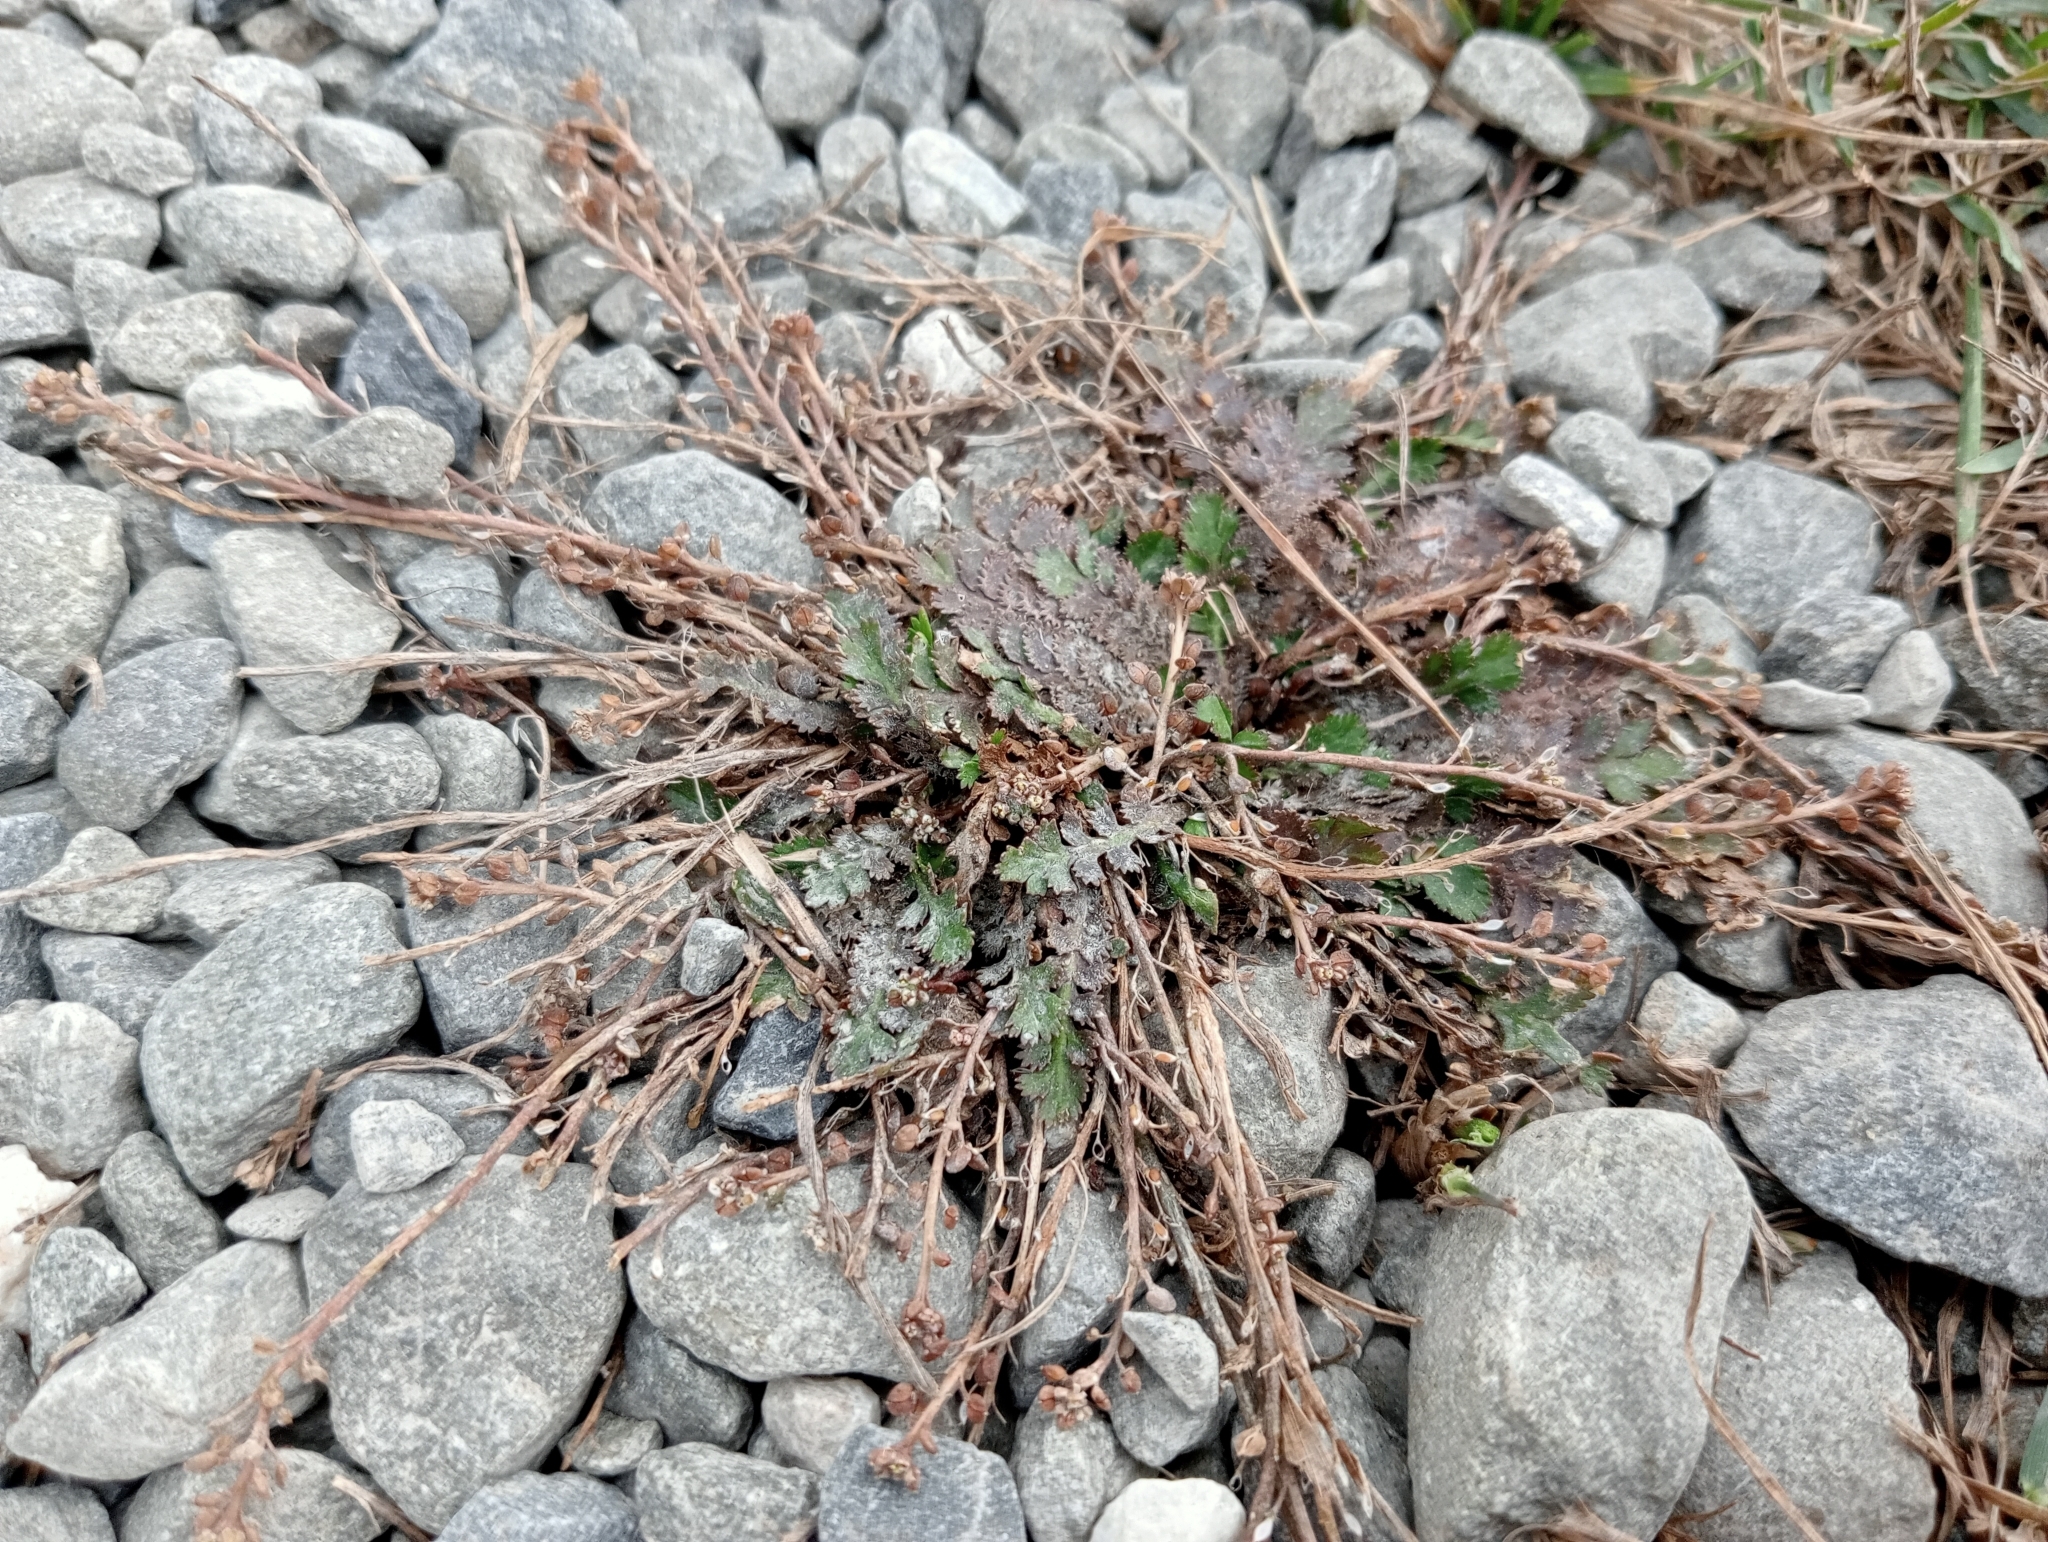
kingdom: Plantae
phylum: Tracheophyta
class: Magnoliopsida
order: Brassicales
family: Brassicaceae
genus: Lepidium
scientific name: Lepidium tenuicaule
